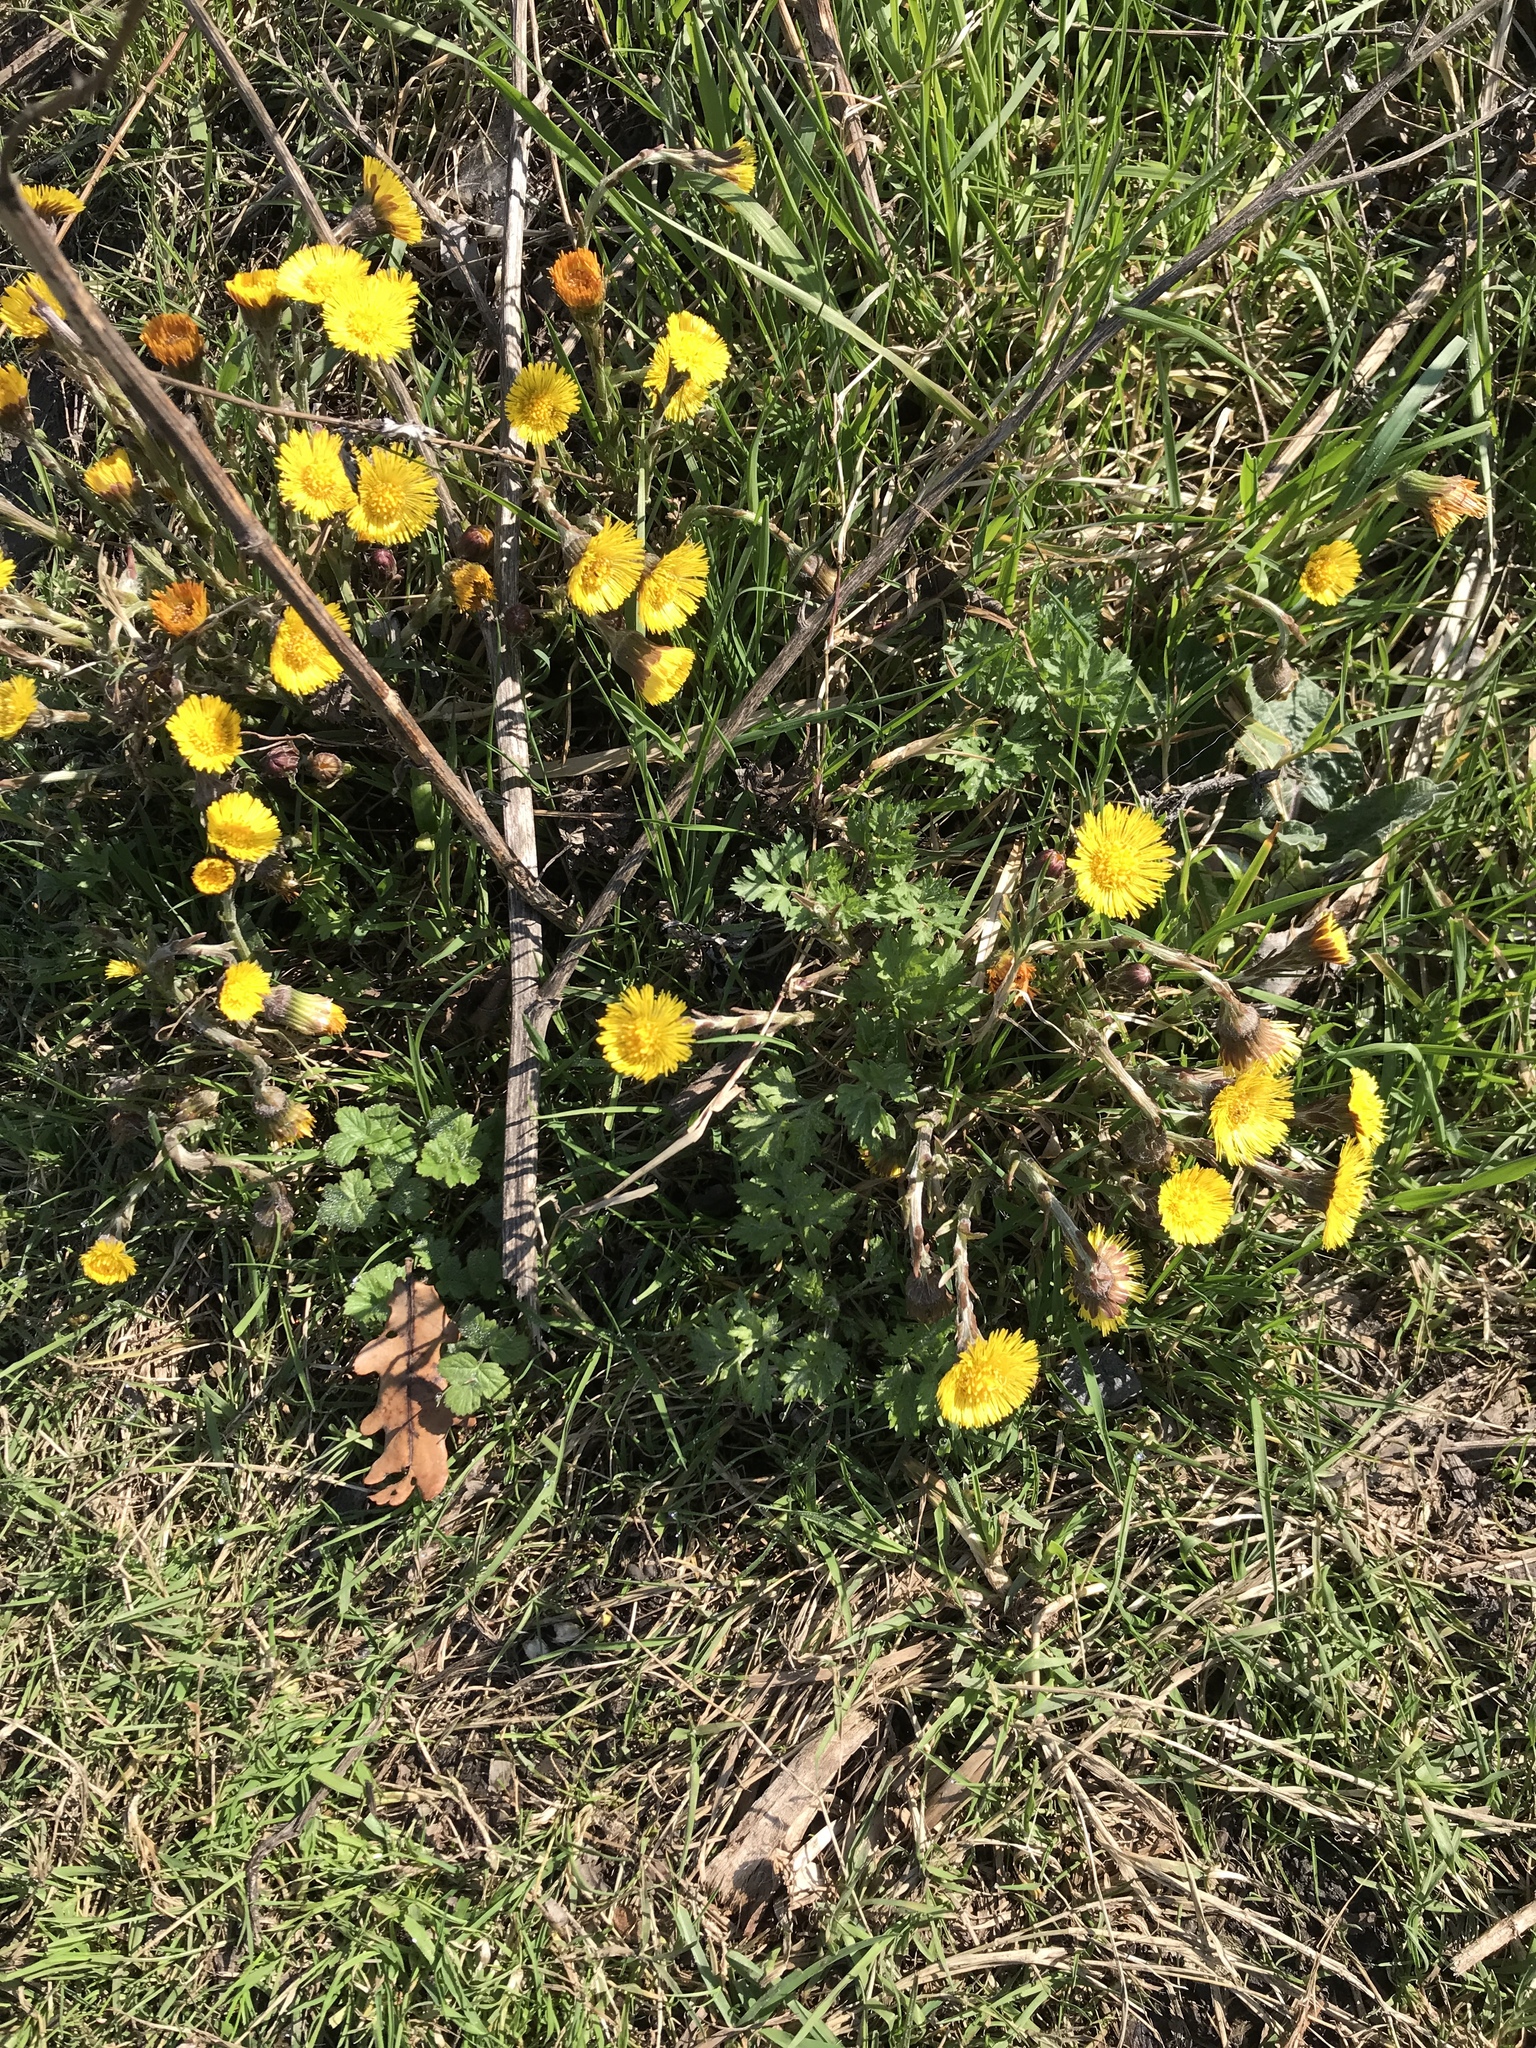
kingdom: Plantae
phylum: Tracheophyta
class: Magnoliopsida
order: Asterales
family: Asteraceae
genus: Tussilago
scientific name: Tussilago farfara
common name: Coltsfoot
